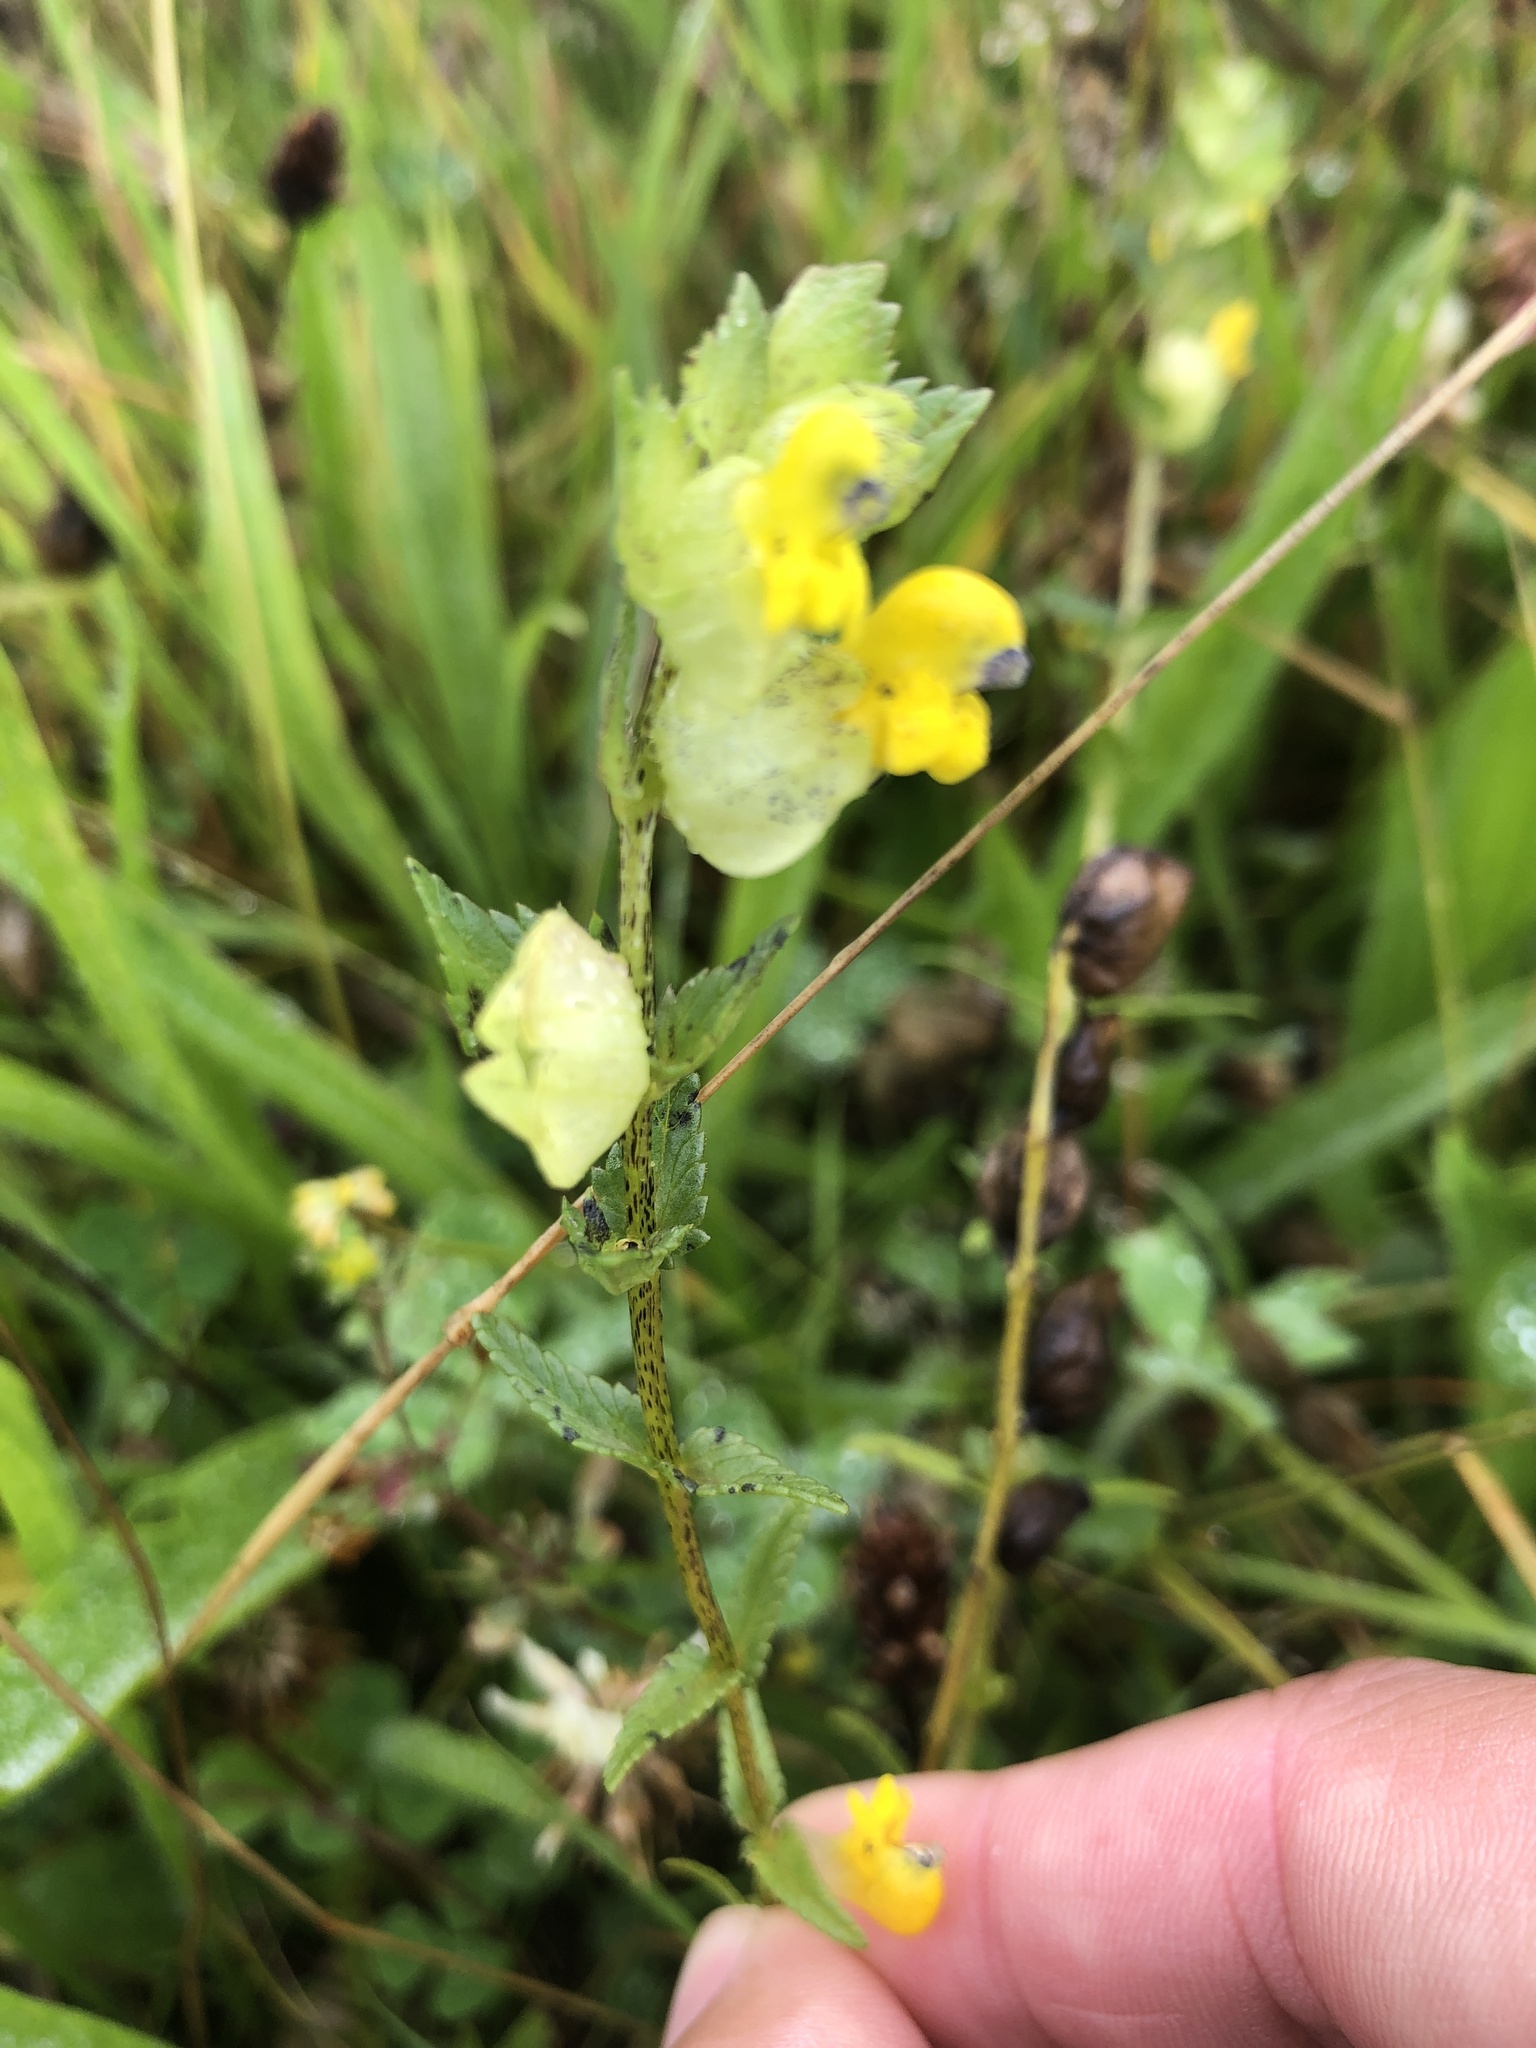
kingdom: Plantae
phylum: Tracheophyta
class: Magnoliopsida
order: Lamiales
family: Orobanchaceae
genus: Rhinanthus
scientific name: Rhinanthus minor
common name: Yellow-rattle
